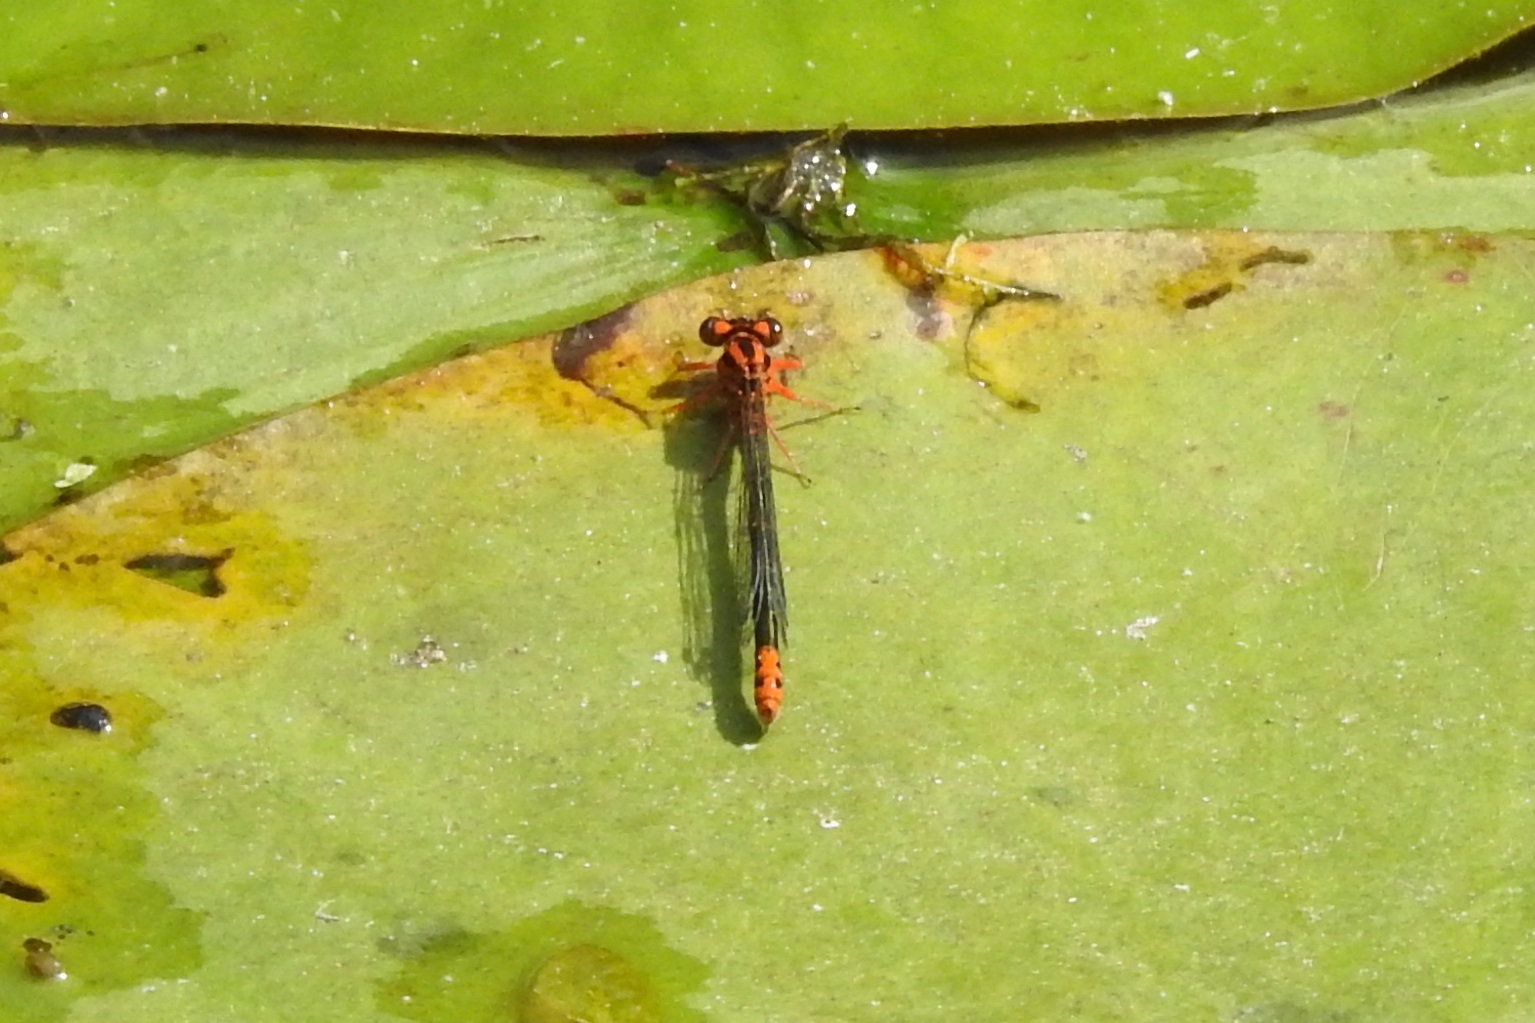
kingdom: Animalia
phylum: Arthropoda
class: Insecta
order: Odonata
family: Coenagrionidae
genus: Ischnura
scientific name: Ischnura kellicotti
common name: Lilypad forktail
